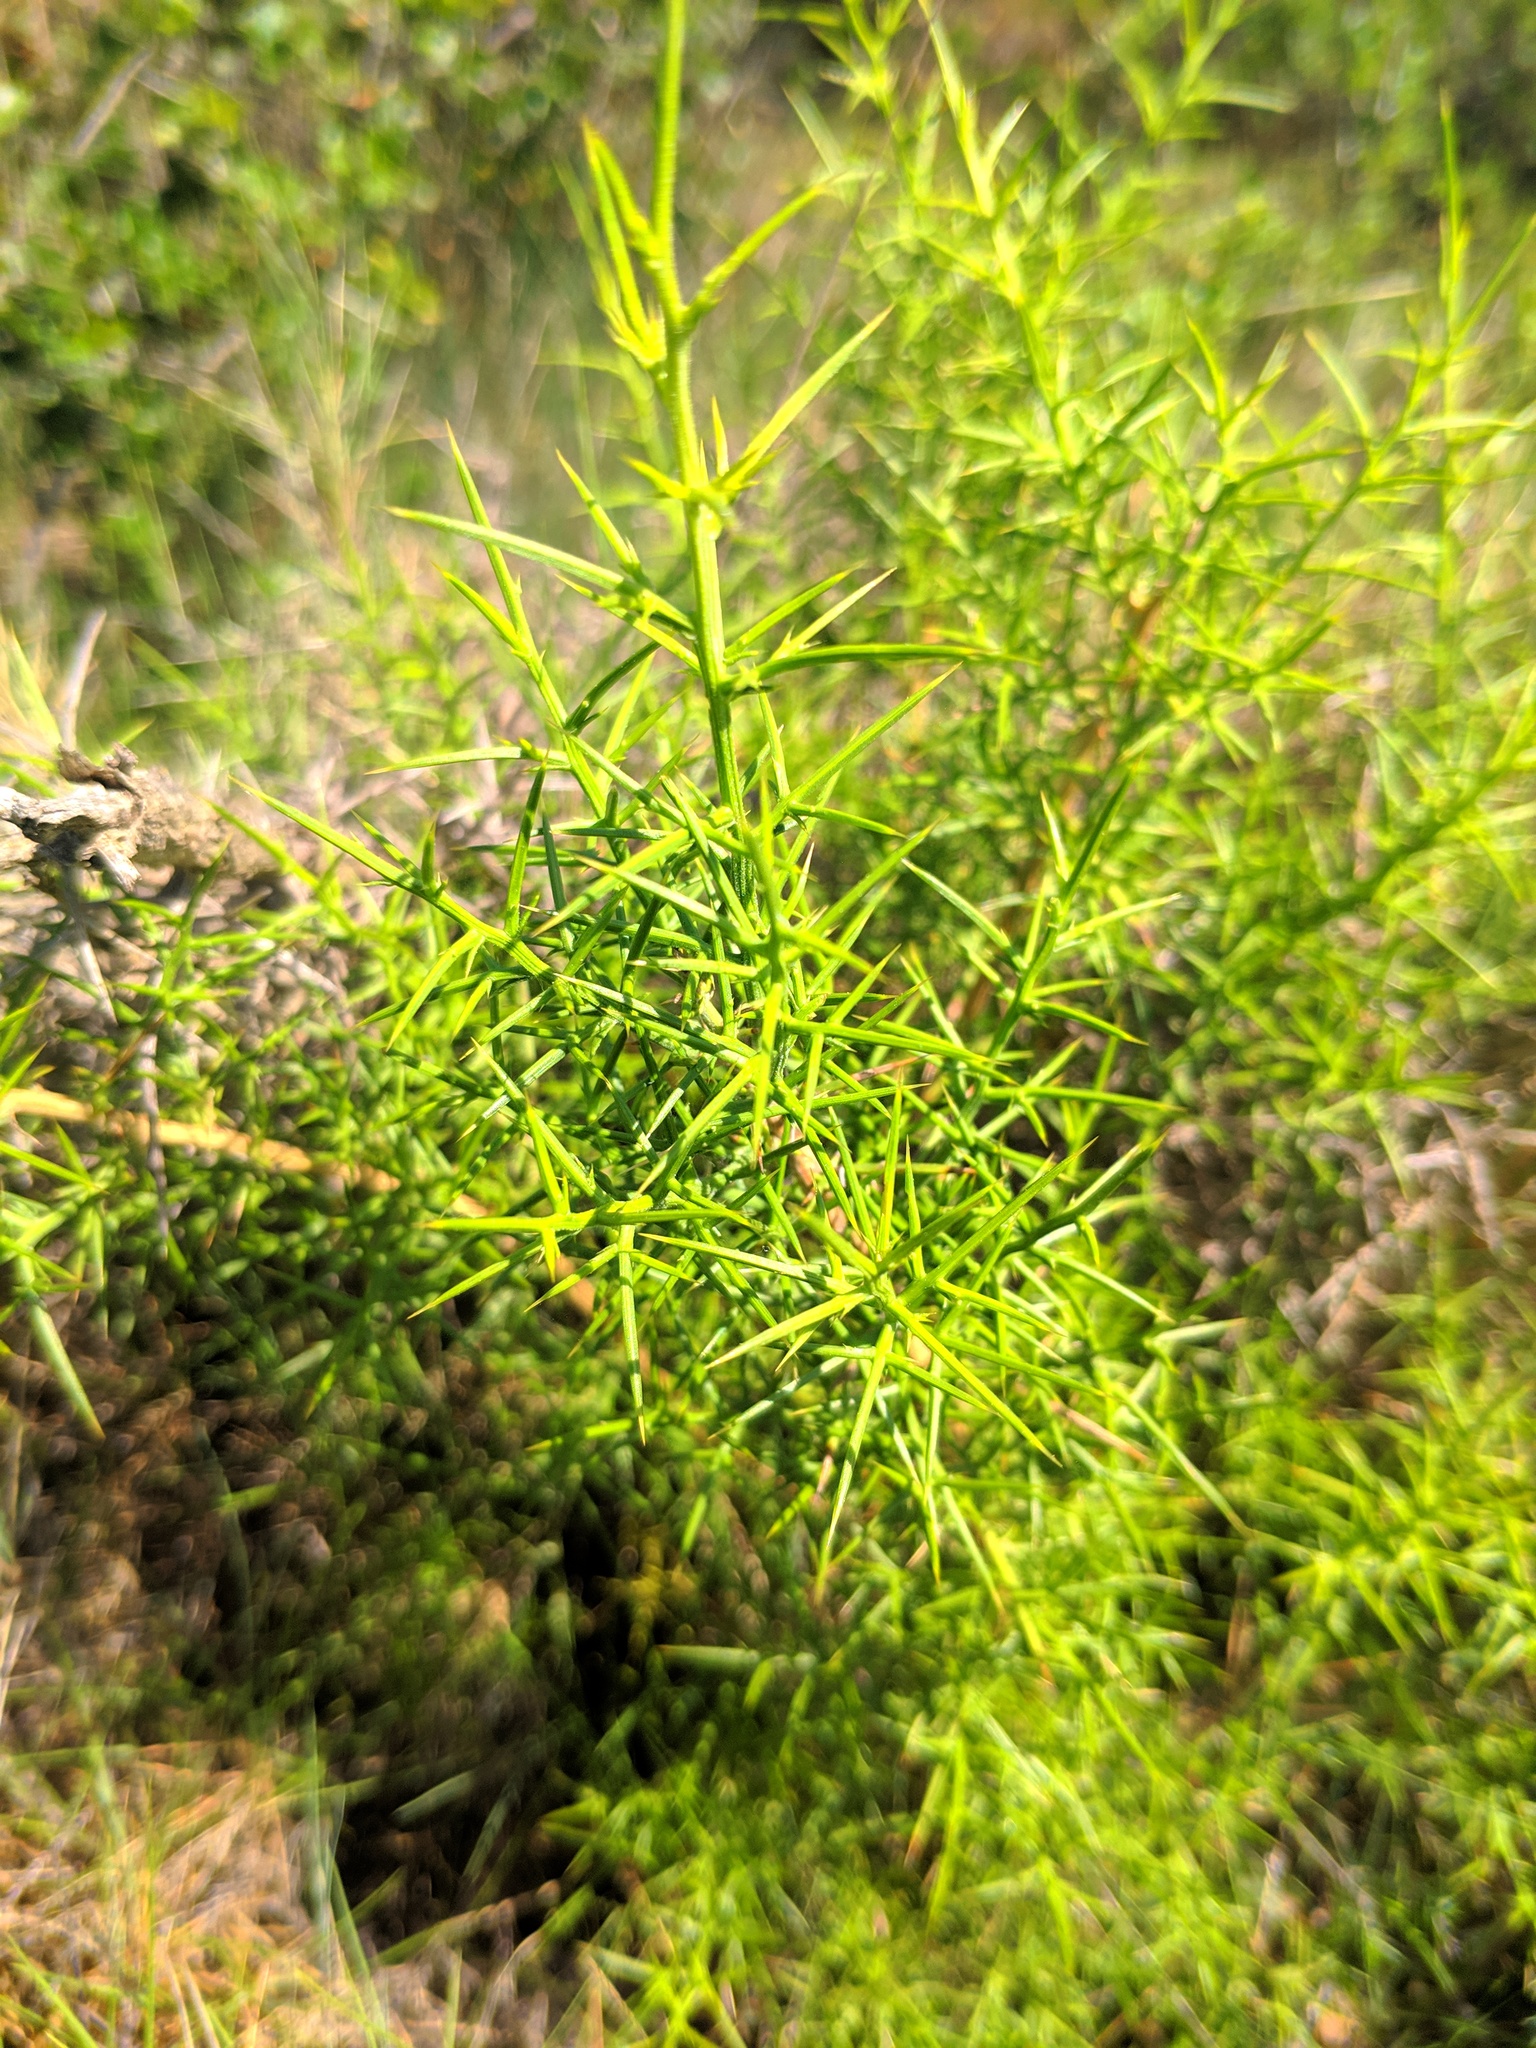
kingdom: Plantae
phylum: Tracheophyta
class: Magnoliopsida
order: Fabales
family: Fabaceae
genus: Ulex
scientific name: Ulex parviflorus
